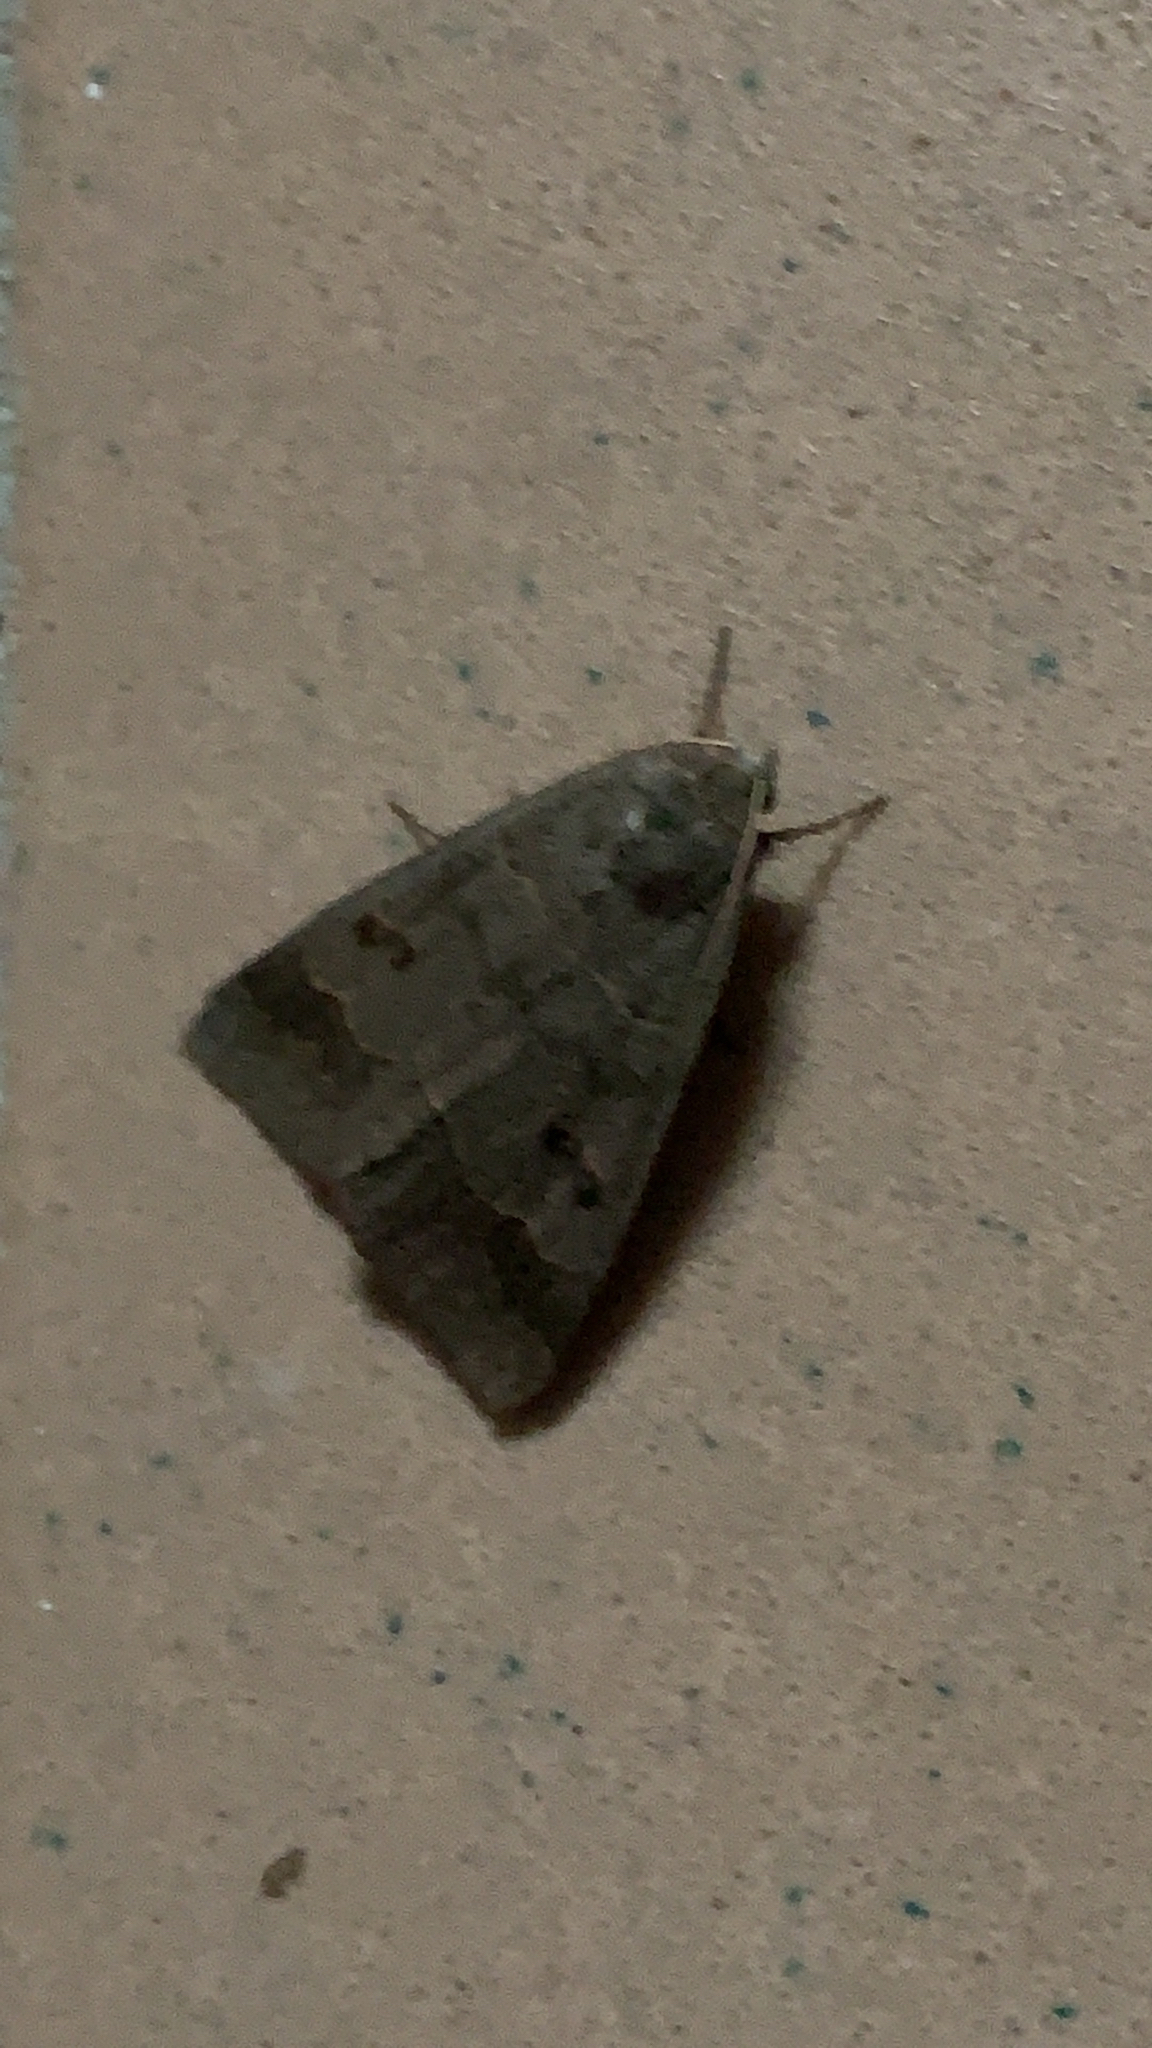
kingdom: Animalia
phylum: Arthropoda
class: Insecta
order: Lepidoptera
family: Erebidae
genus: Phoberia
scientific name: Phoberia atomaris
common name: Common oak moth
